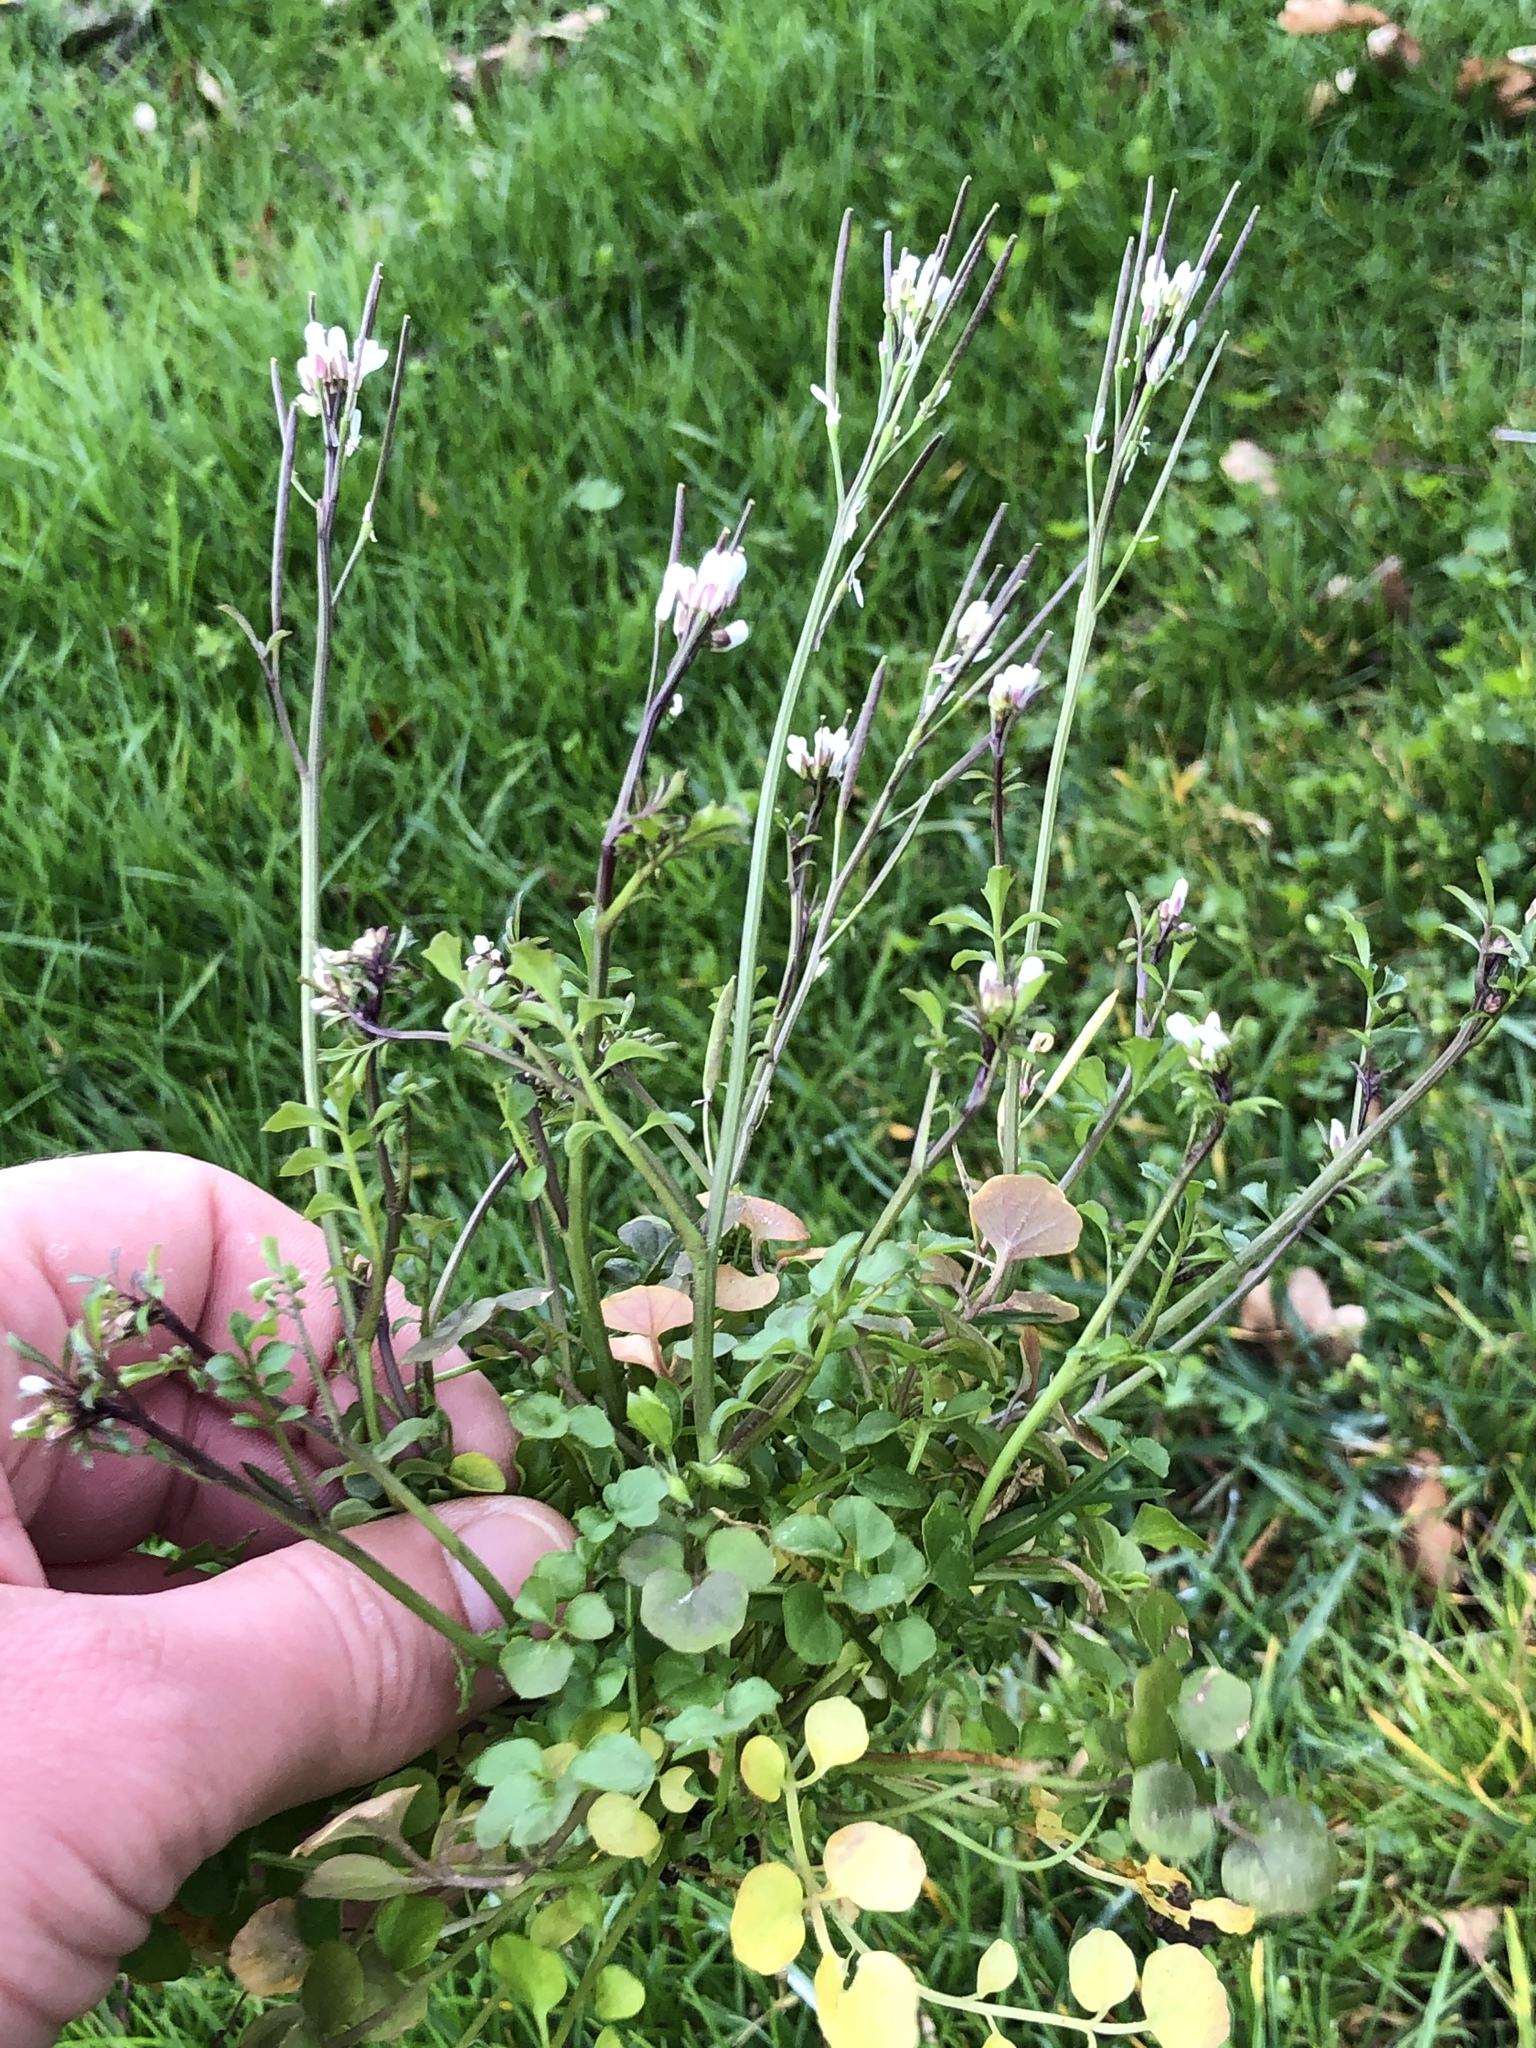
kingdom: Plantae
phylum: Tracheophyta
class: Magnoliopsida
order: Brassicales
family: Brassicaceae
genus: Cardamine
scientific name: Cardamine hirsuta
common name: Hairy bittercress
